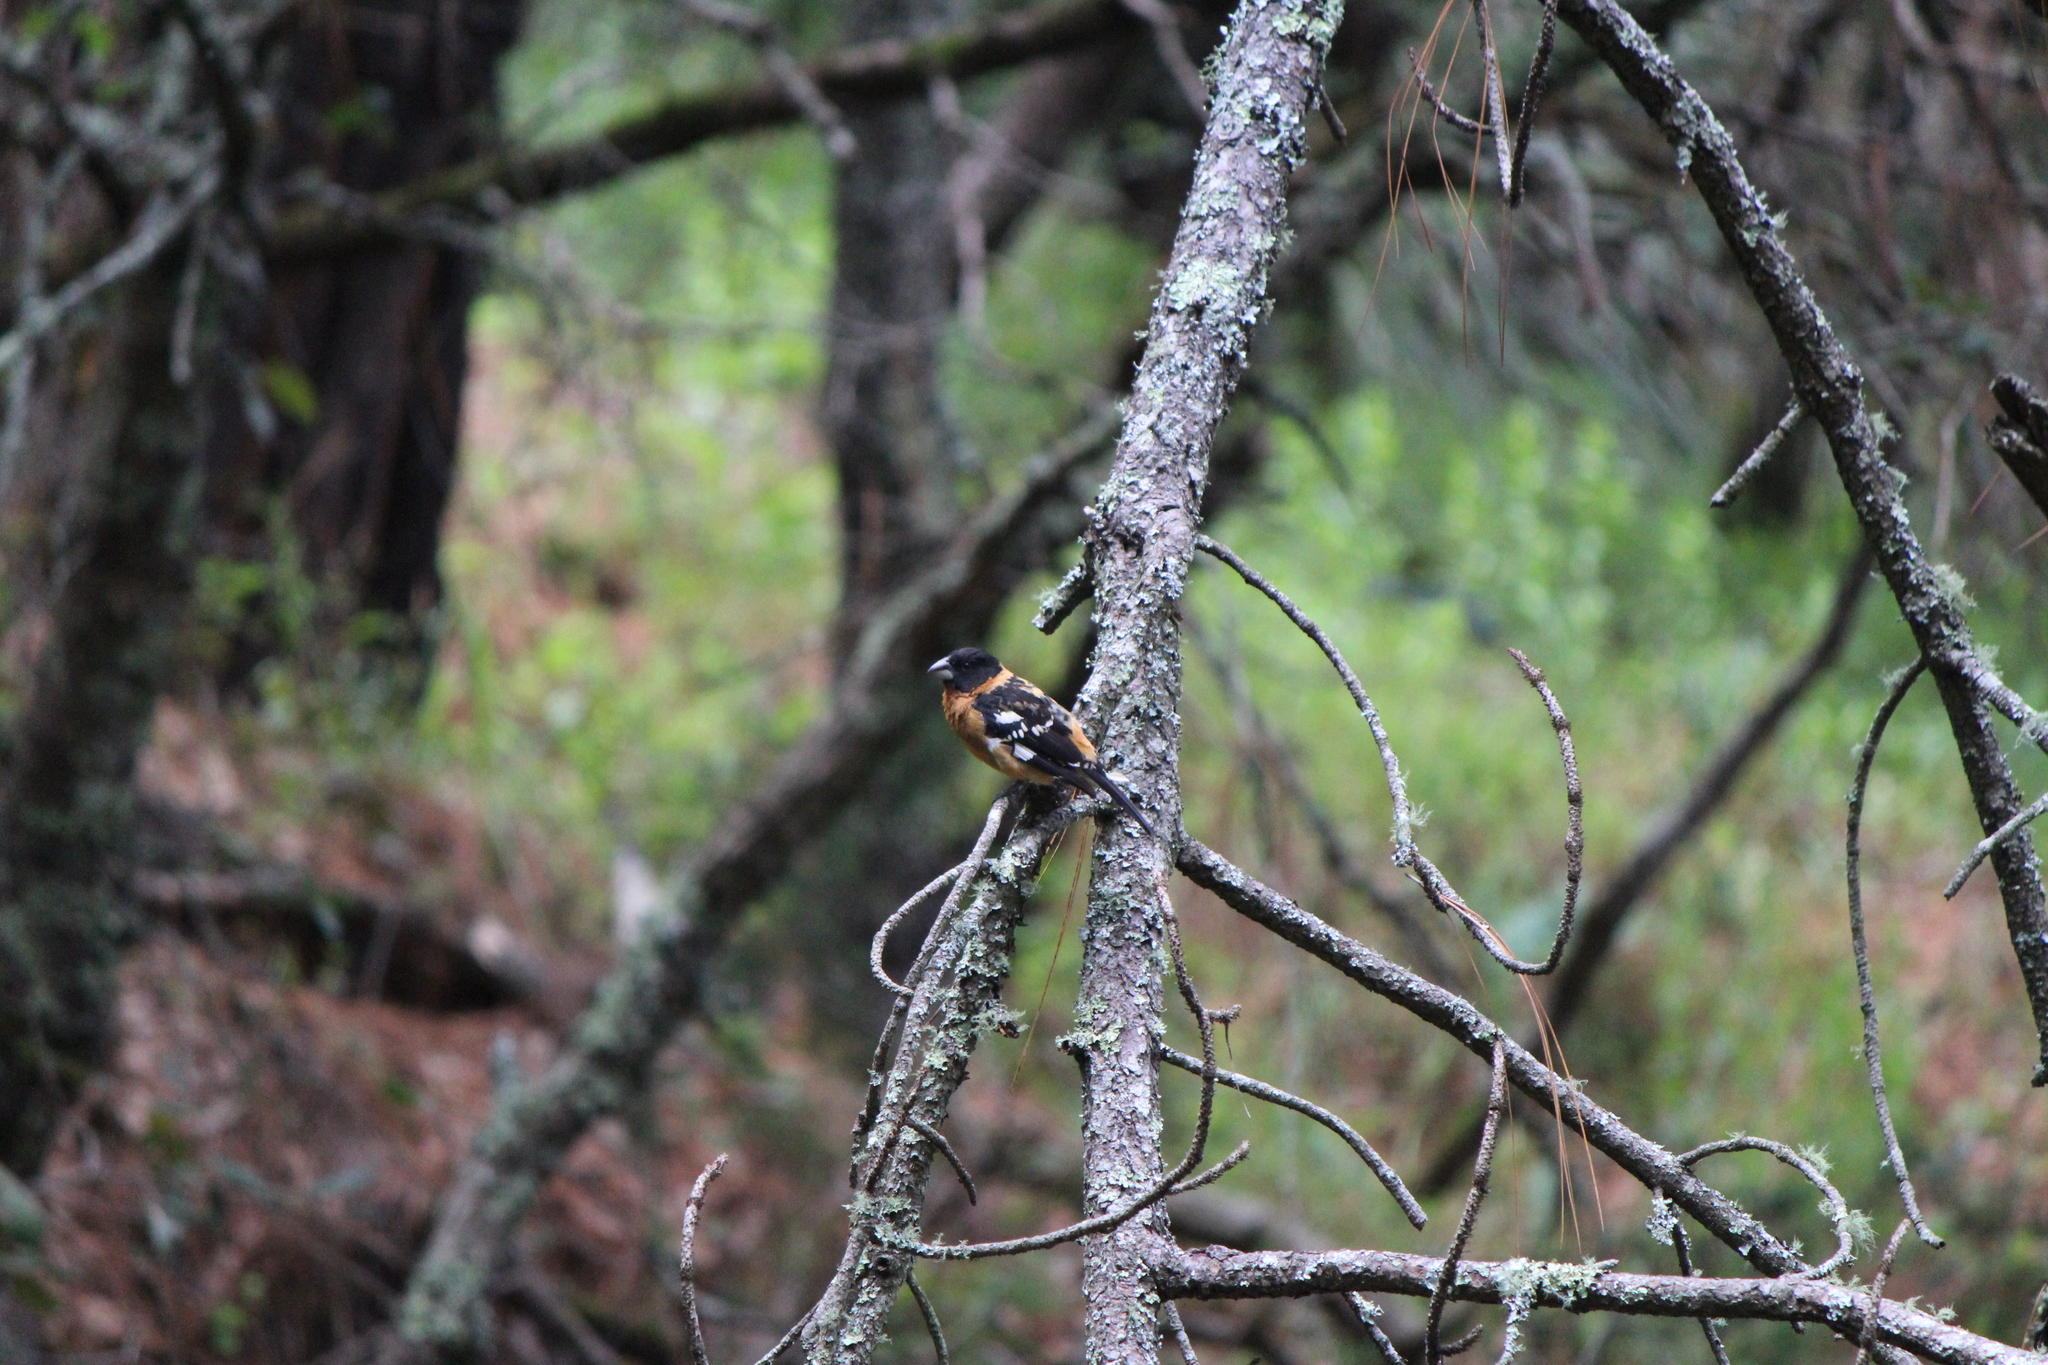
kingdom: Animalia
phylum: Chordata
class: Aves
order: Passeriformes
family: Cardinalidae
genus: Pheucticus
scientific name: Pheucticus melanocephalus
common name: Black-headed grosbeak
